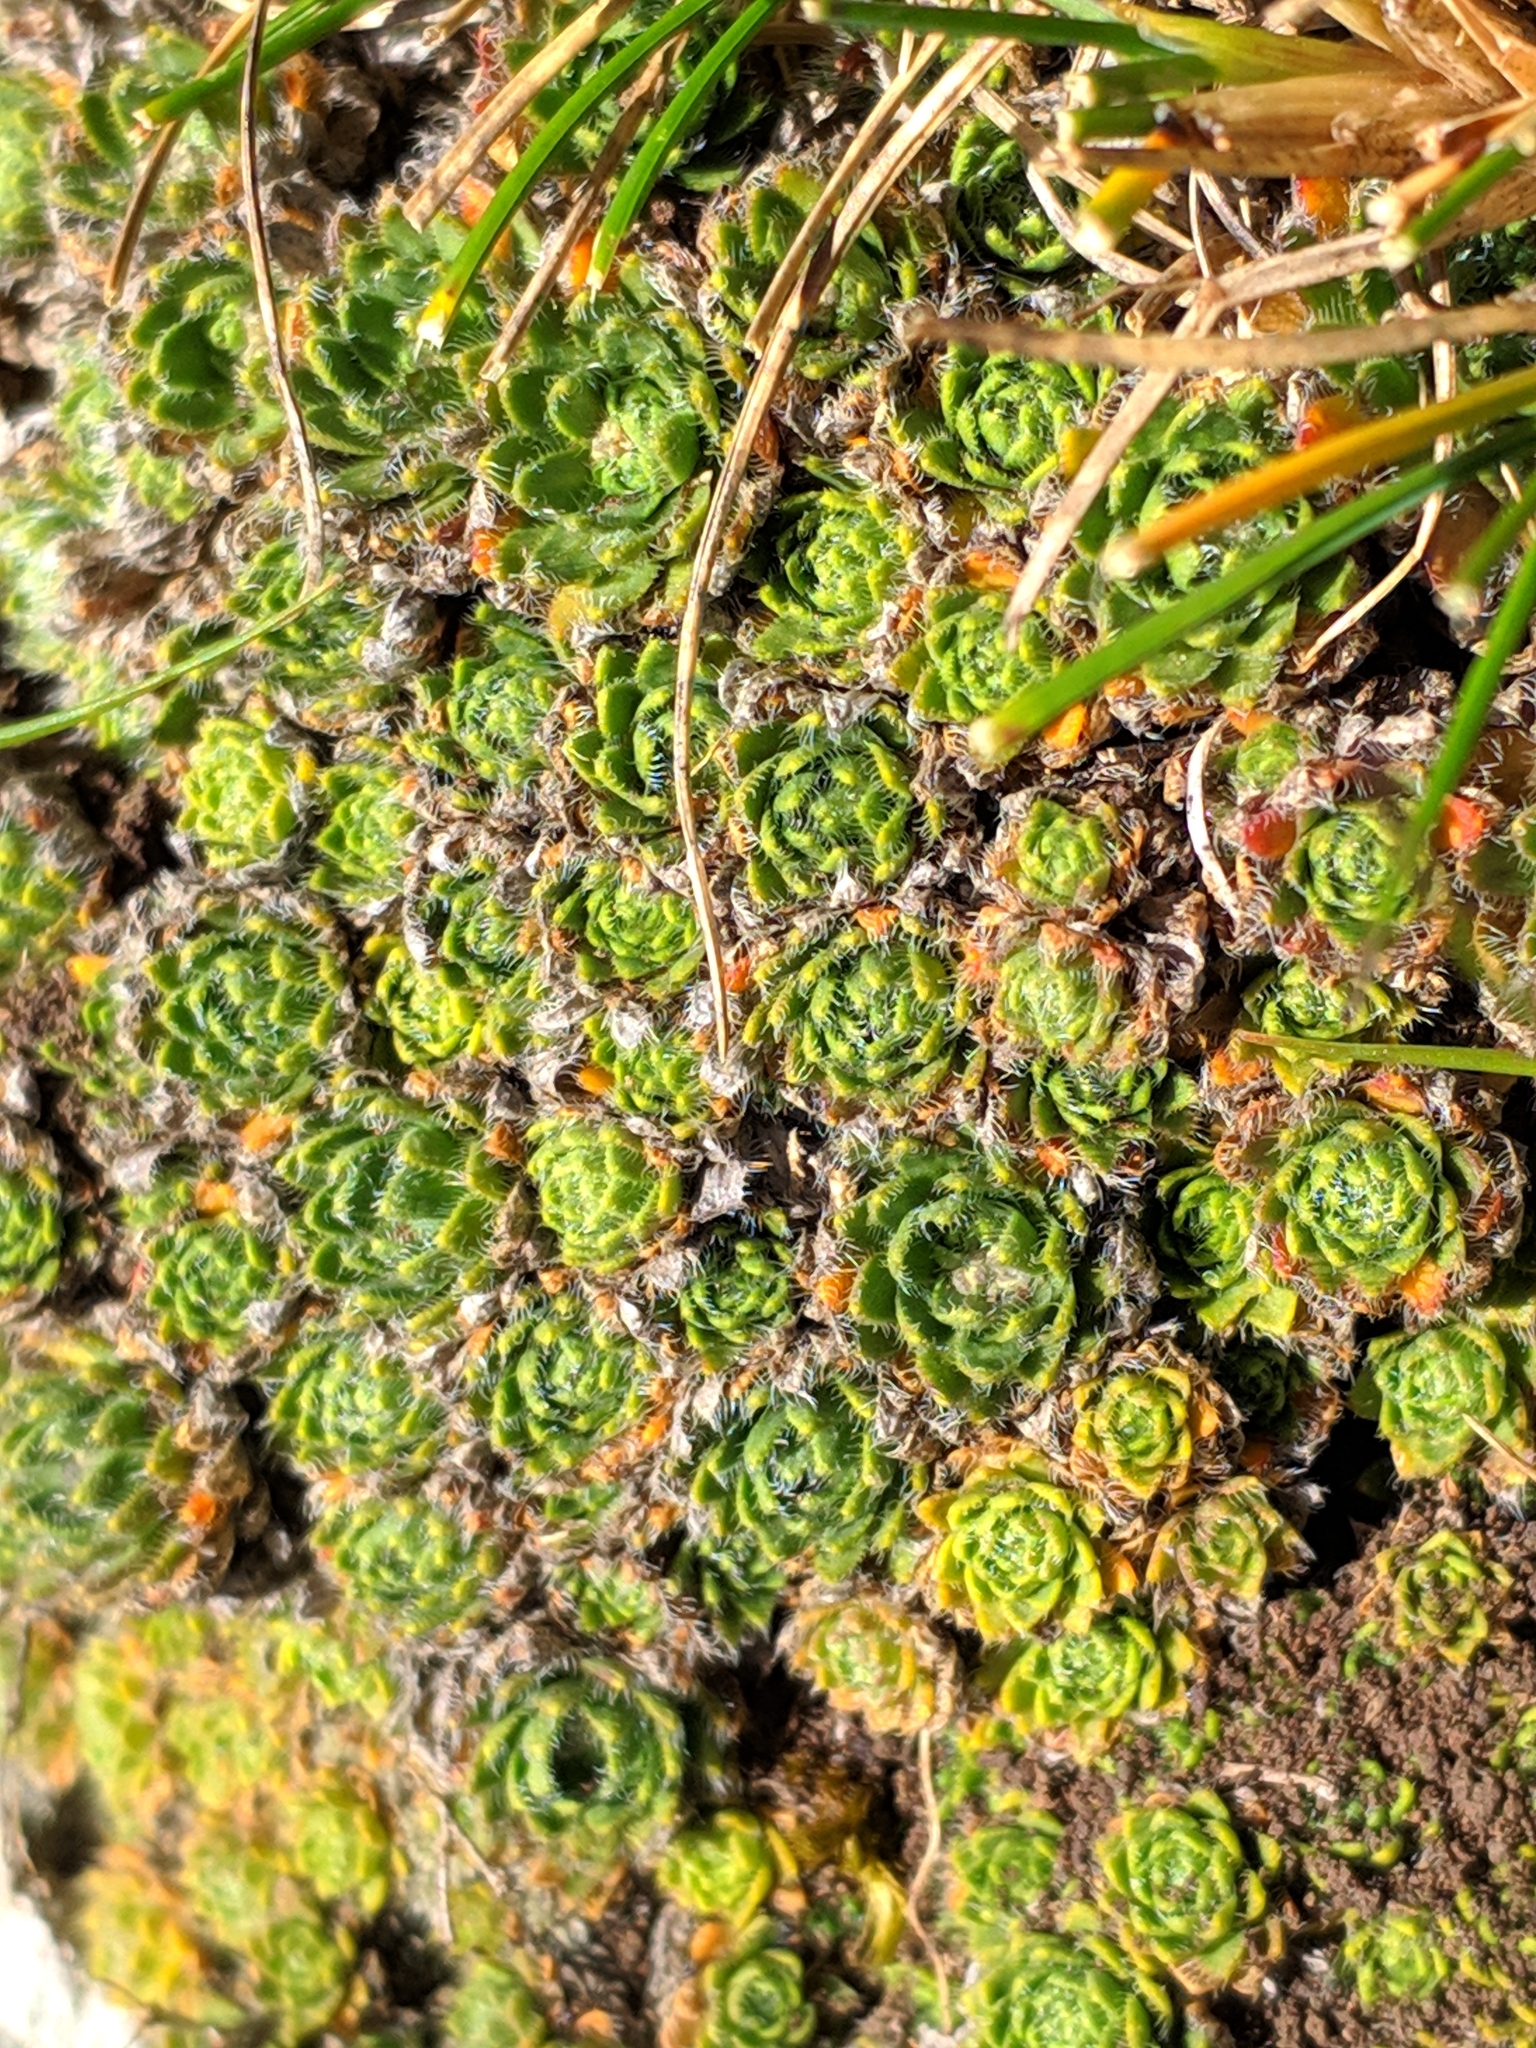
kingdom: Plantae
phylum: Tracheophyta
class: Magnoliopsida
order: Brassicales
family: Brassicaceae
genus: Draba
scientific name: Draba dedeana
